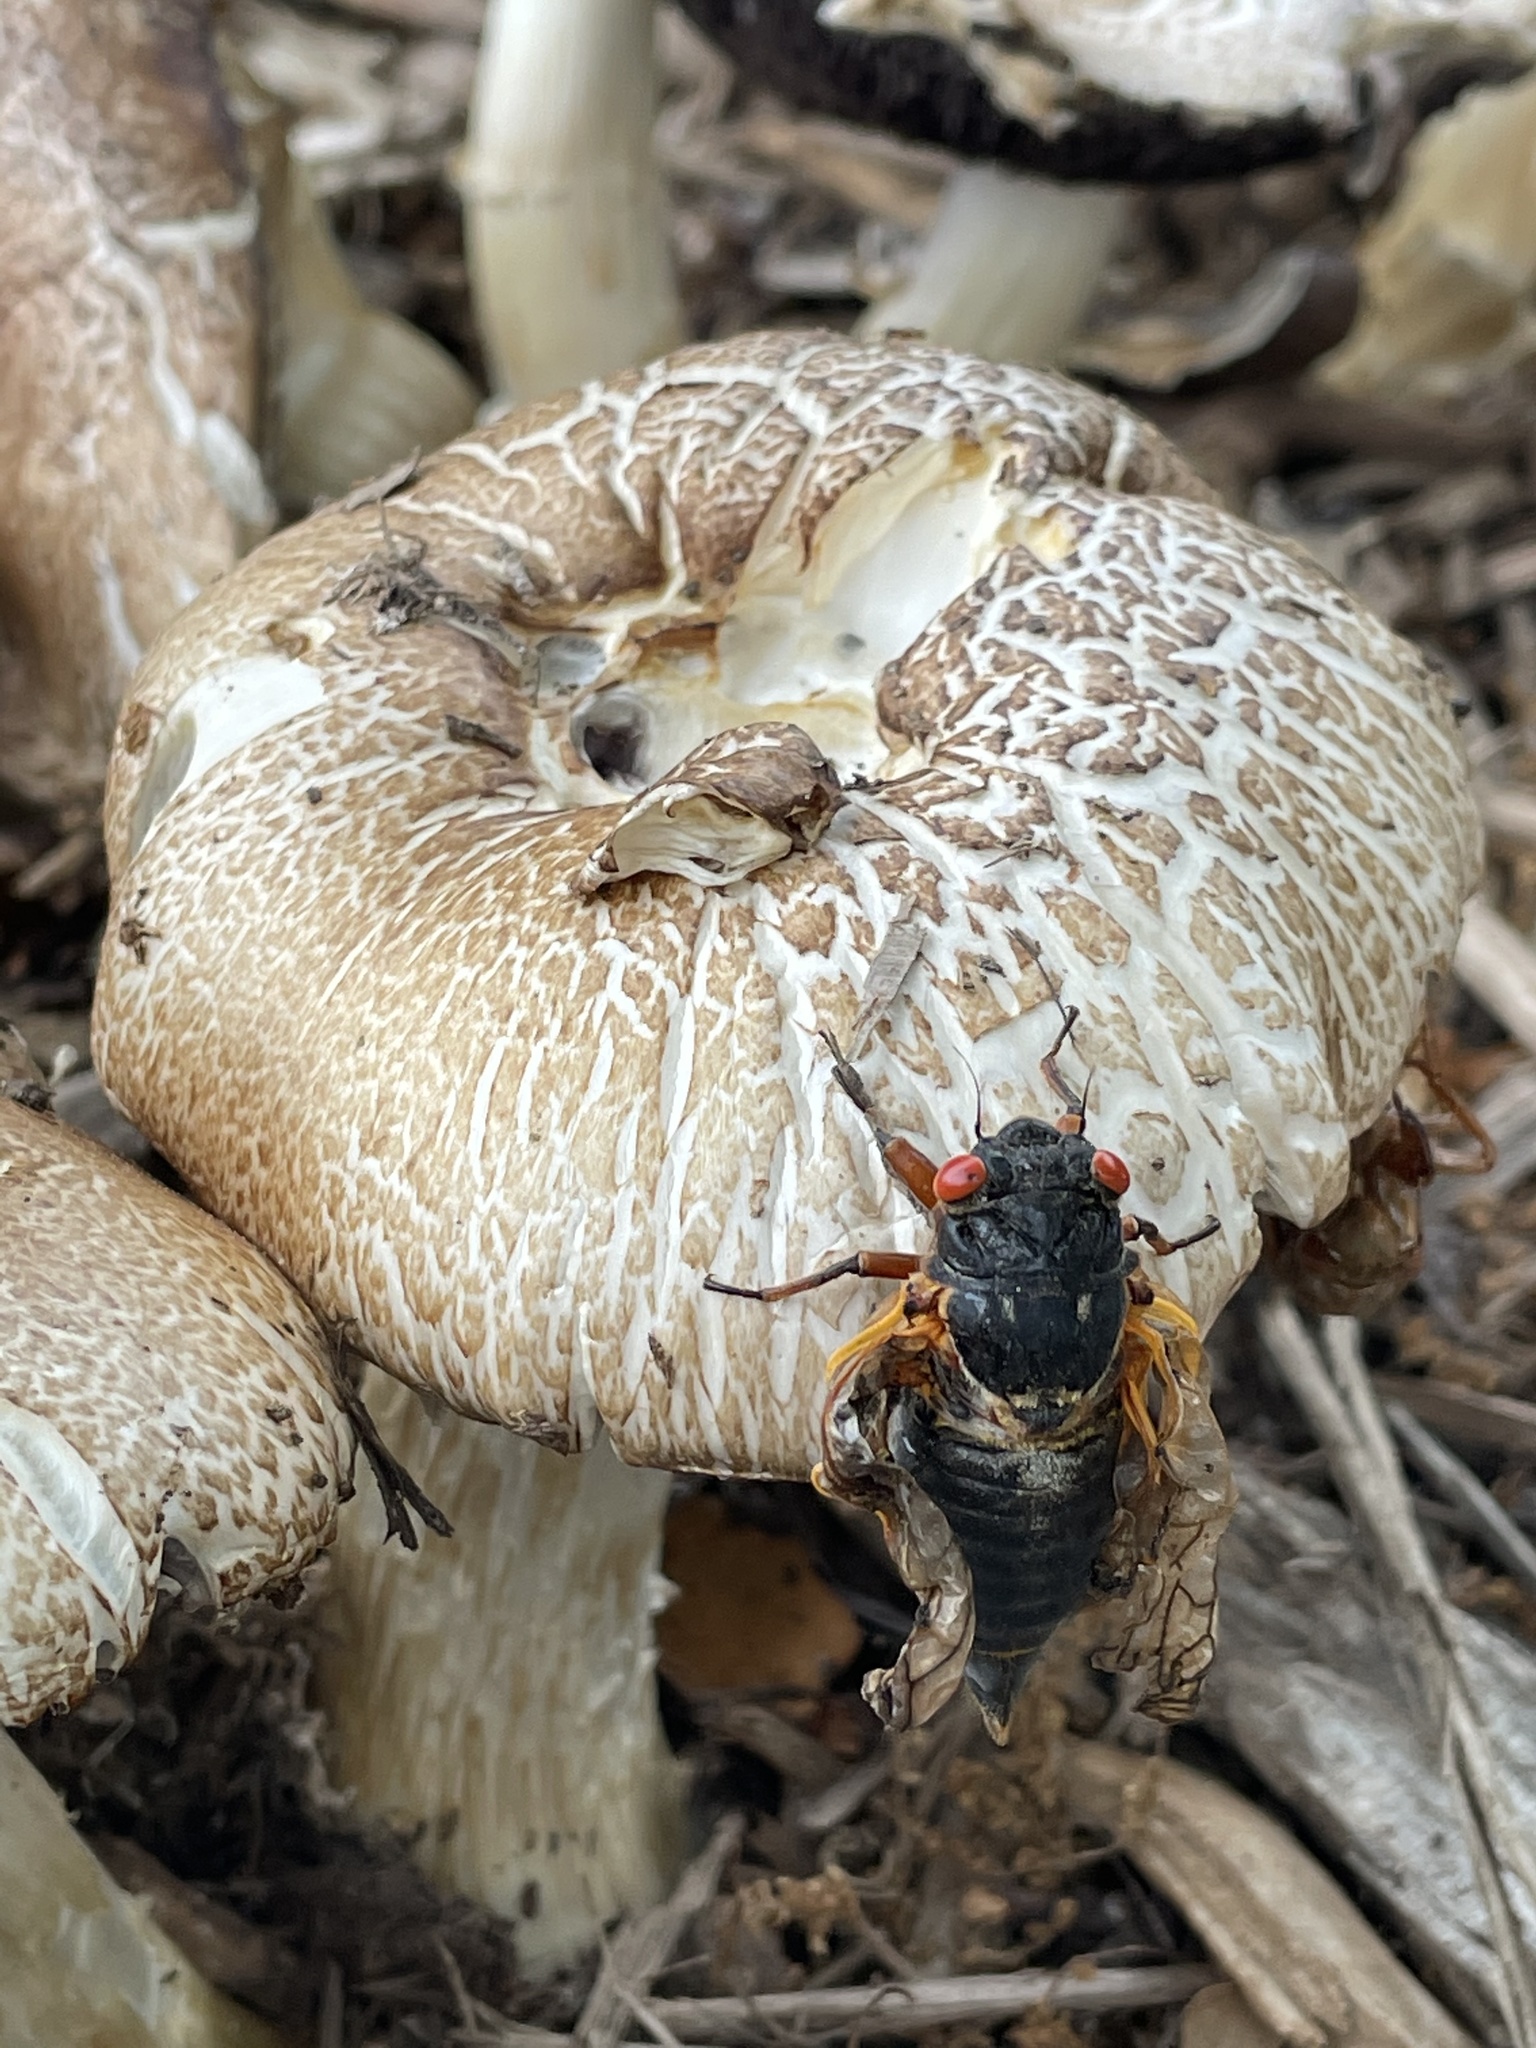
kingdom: Fungi
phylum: Basidiomycota
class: Agaricomycetes
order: Agaricales
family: Strophariaceae
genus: Stropharia
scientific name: Stropharia rugosoannulata
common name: Wine roundhead
